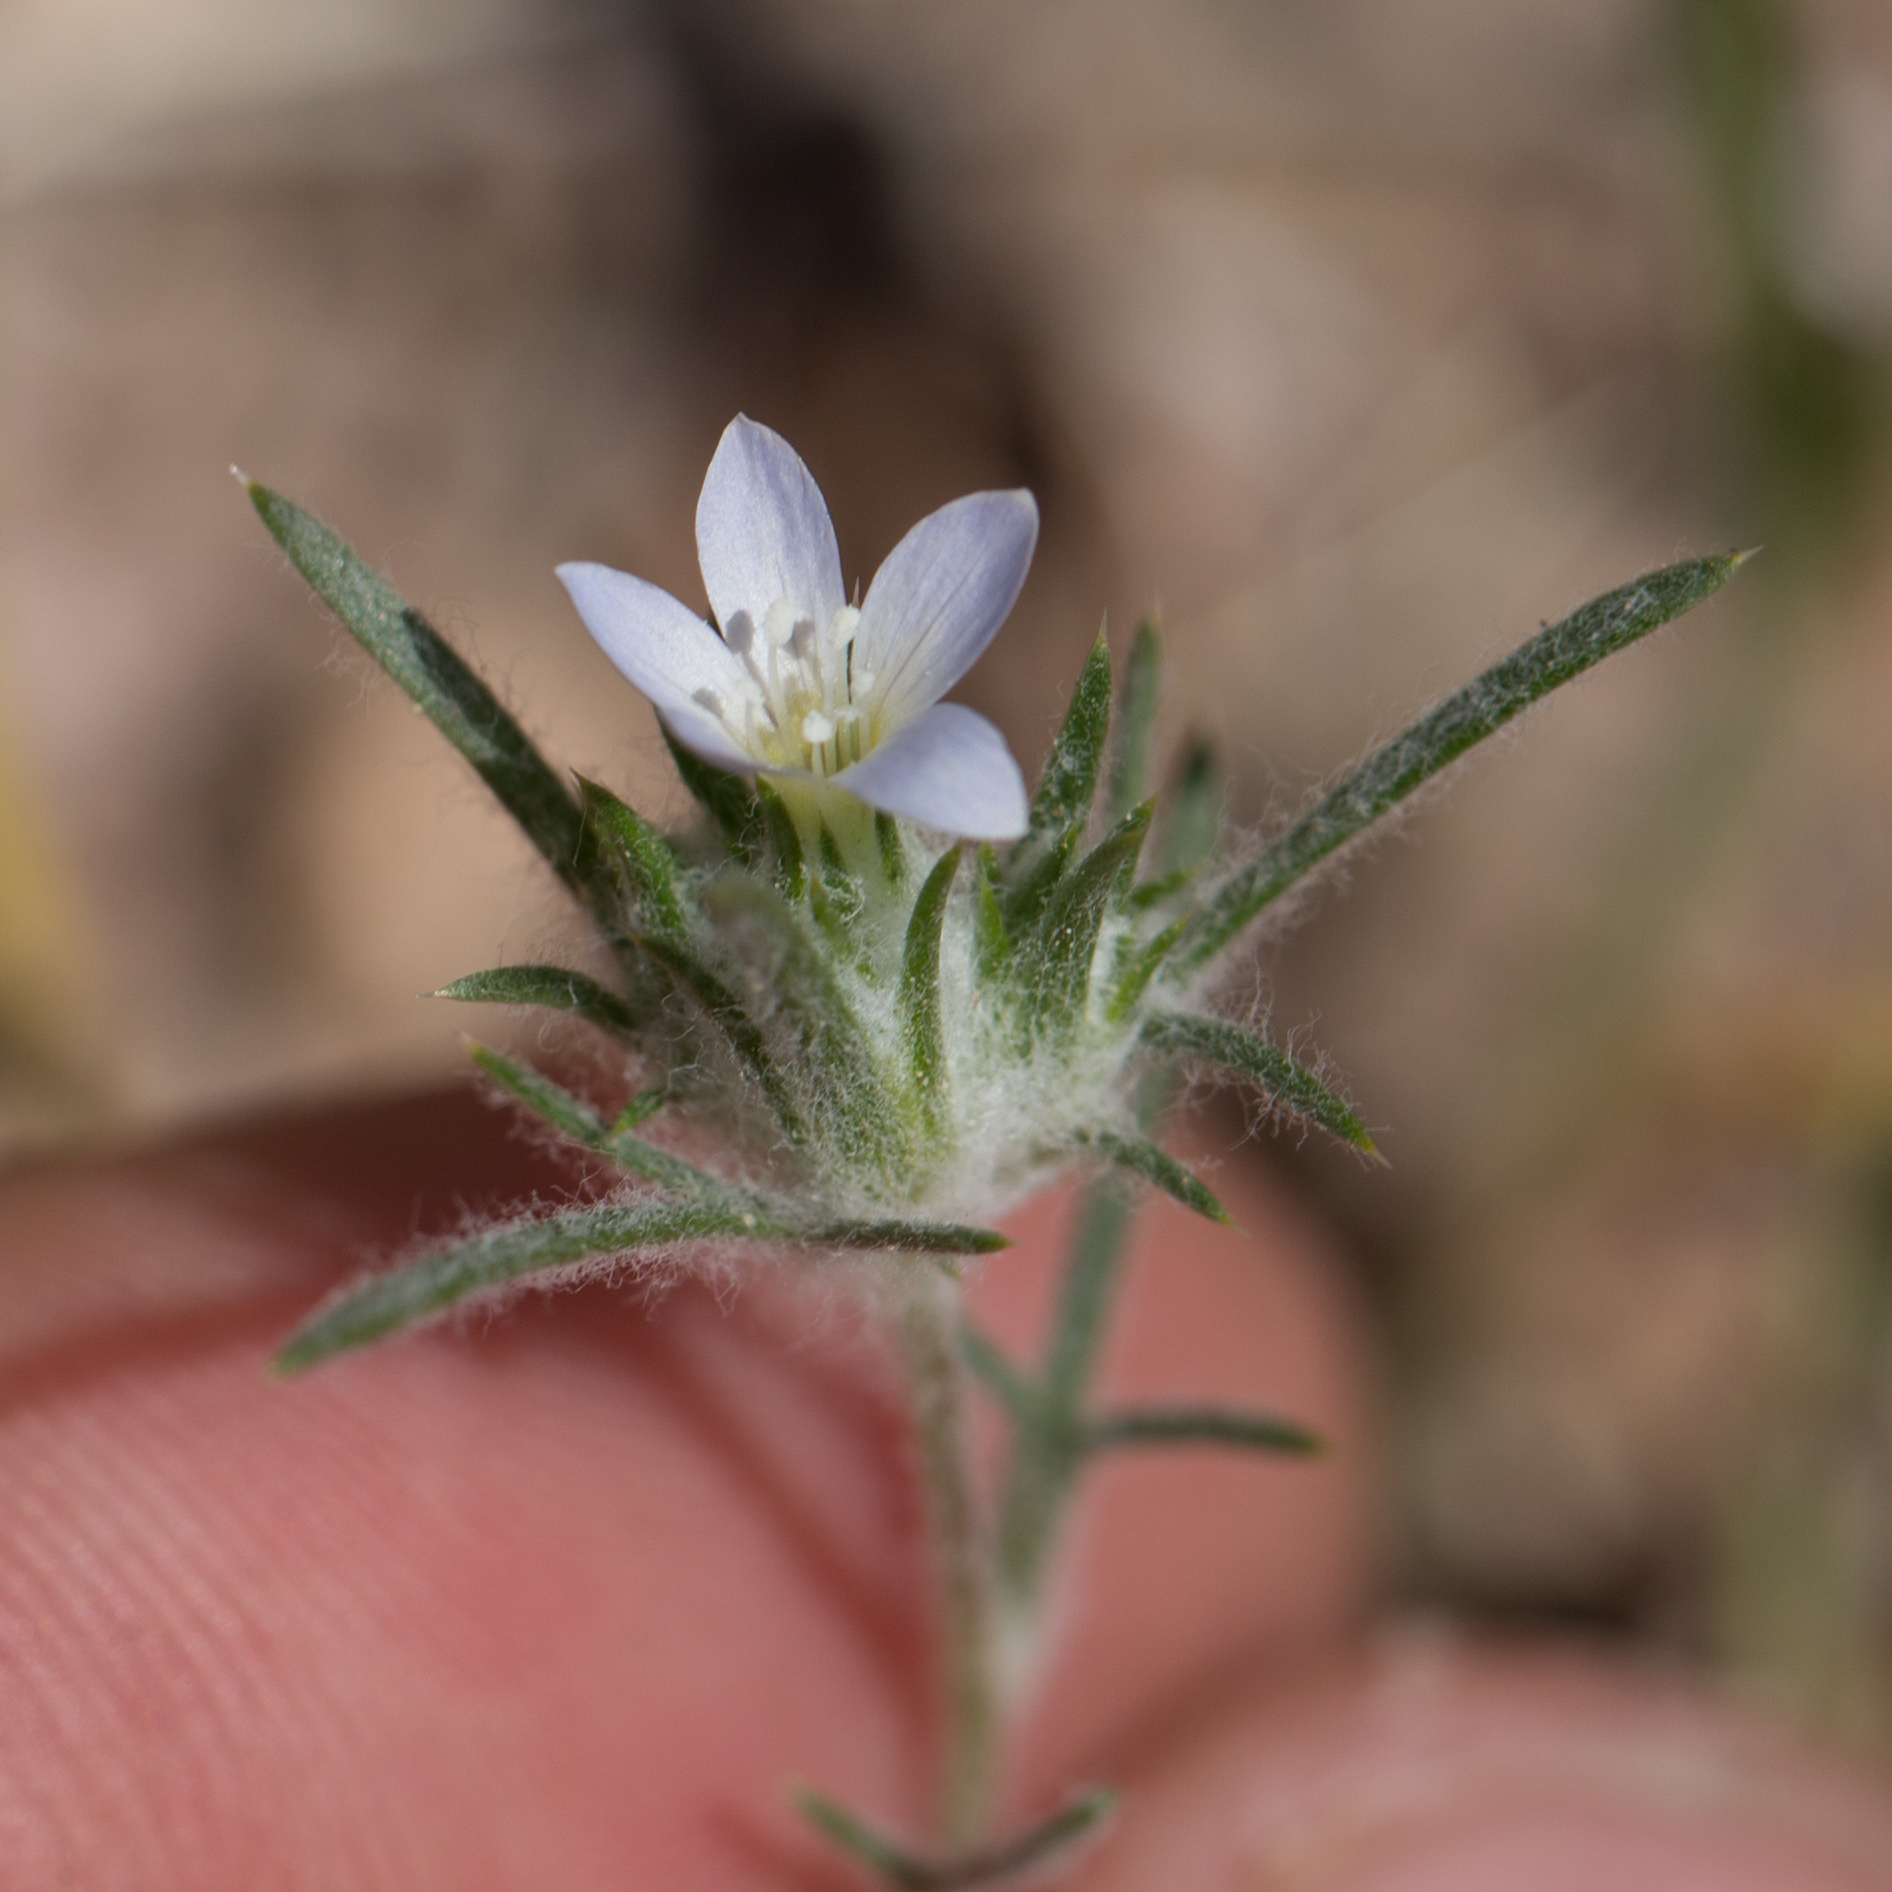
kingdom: Plantae
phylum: Tracheophyta
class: Magnoliopsida
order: Ericales
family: Polemoniaceae
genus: Eriastrum
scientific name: Eriastrum diffusum
